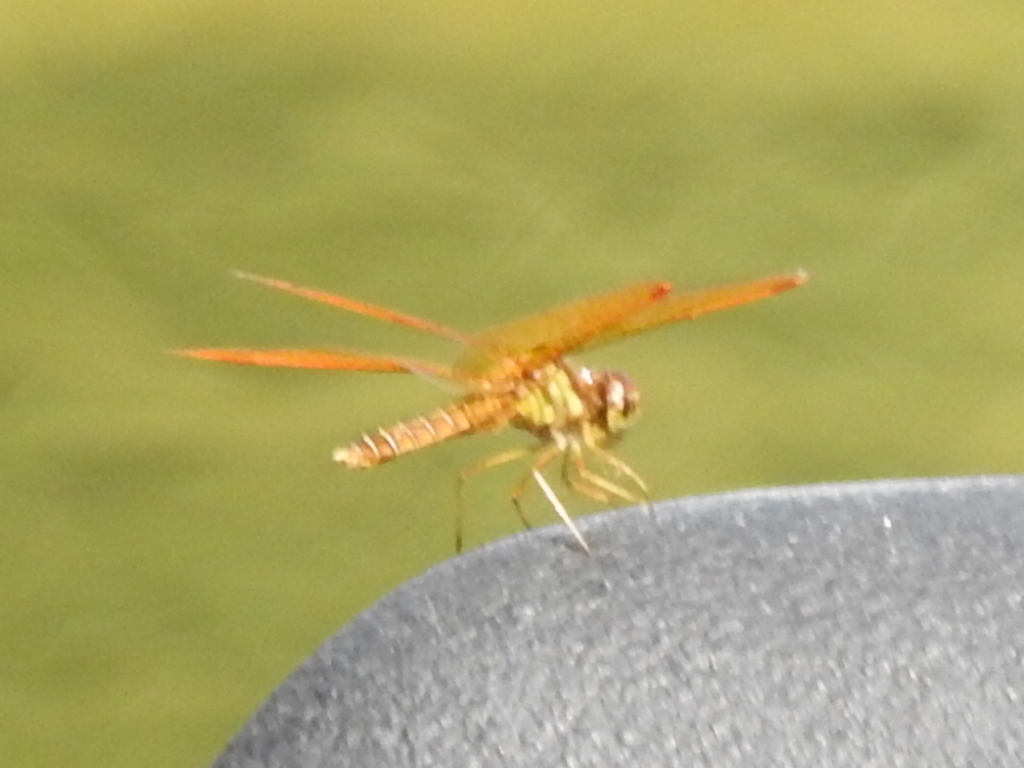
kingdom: Animalia
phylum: Arthropoda
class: Insecta
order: Odonata
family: Libellulidae
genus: Perithemis
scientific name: Perithemis tenera
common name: Eastern amberwing
